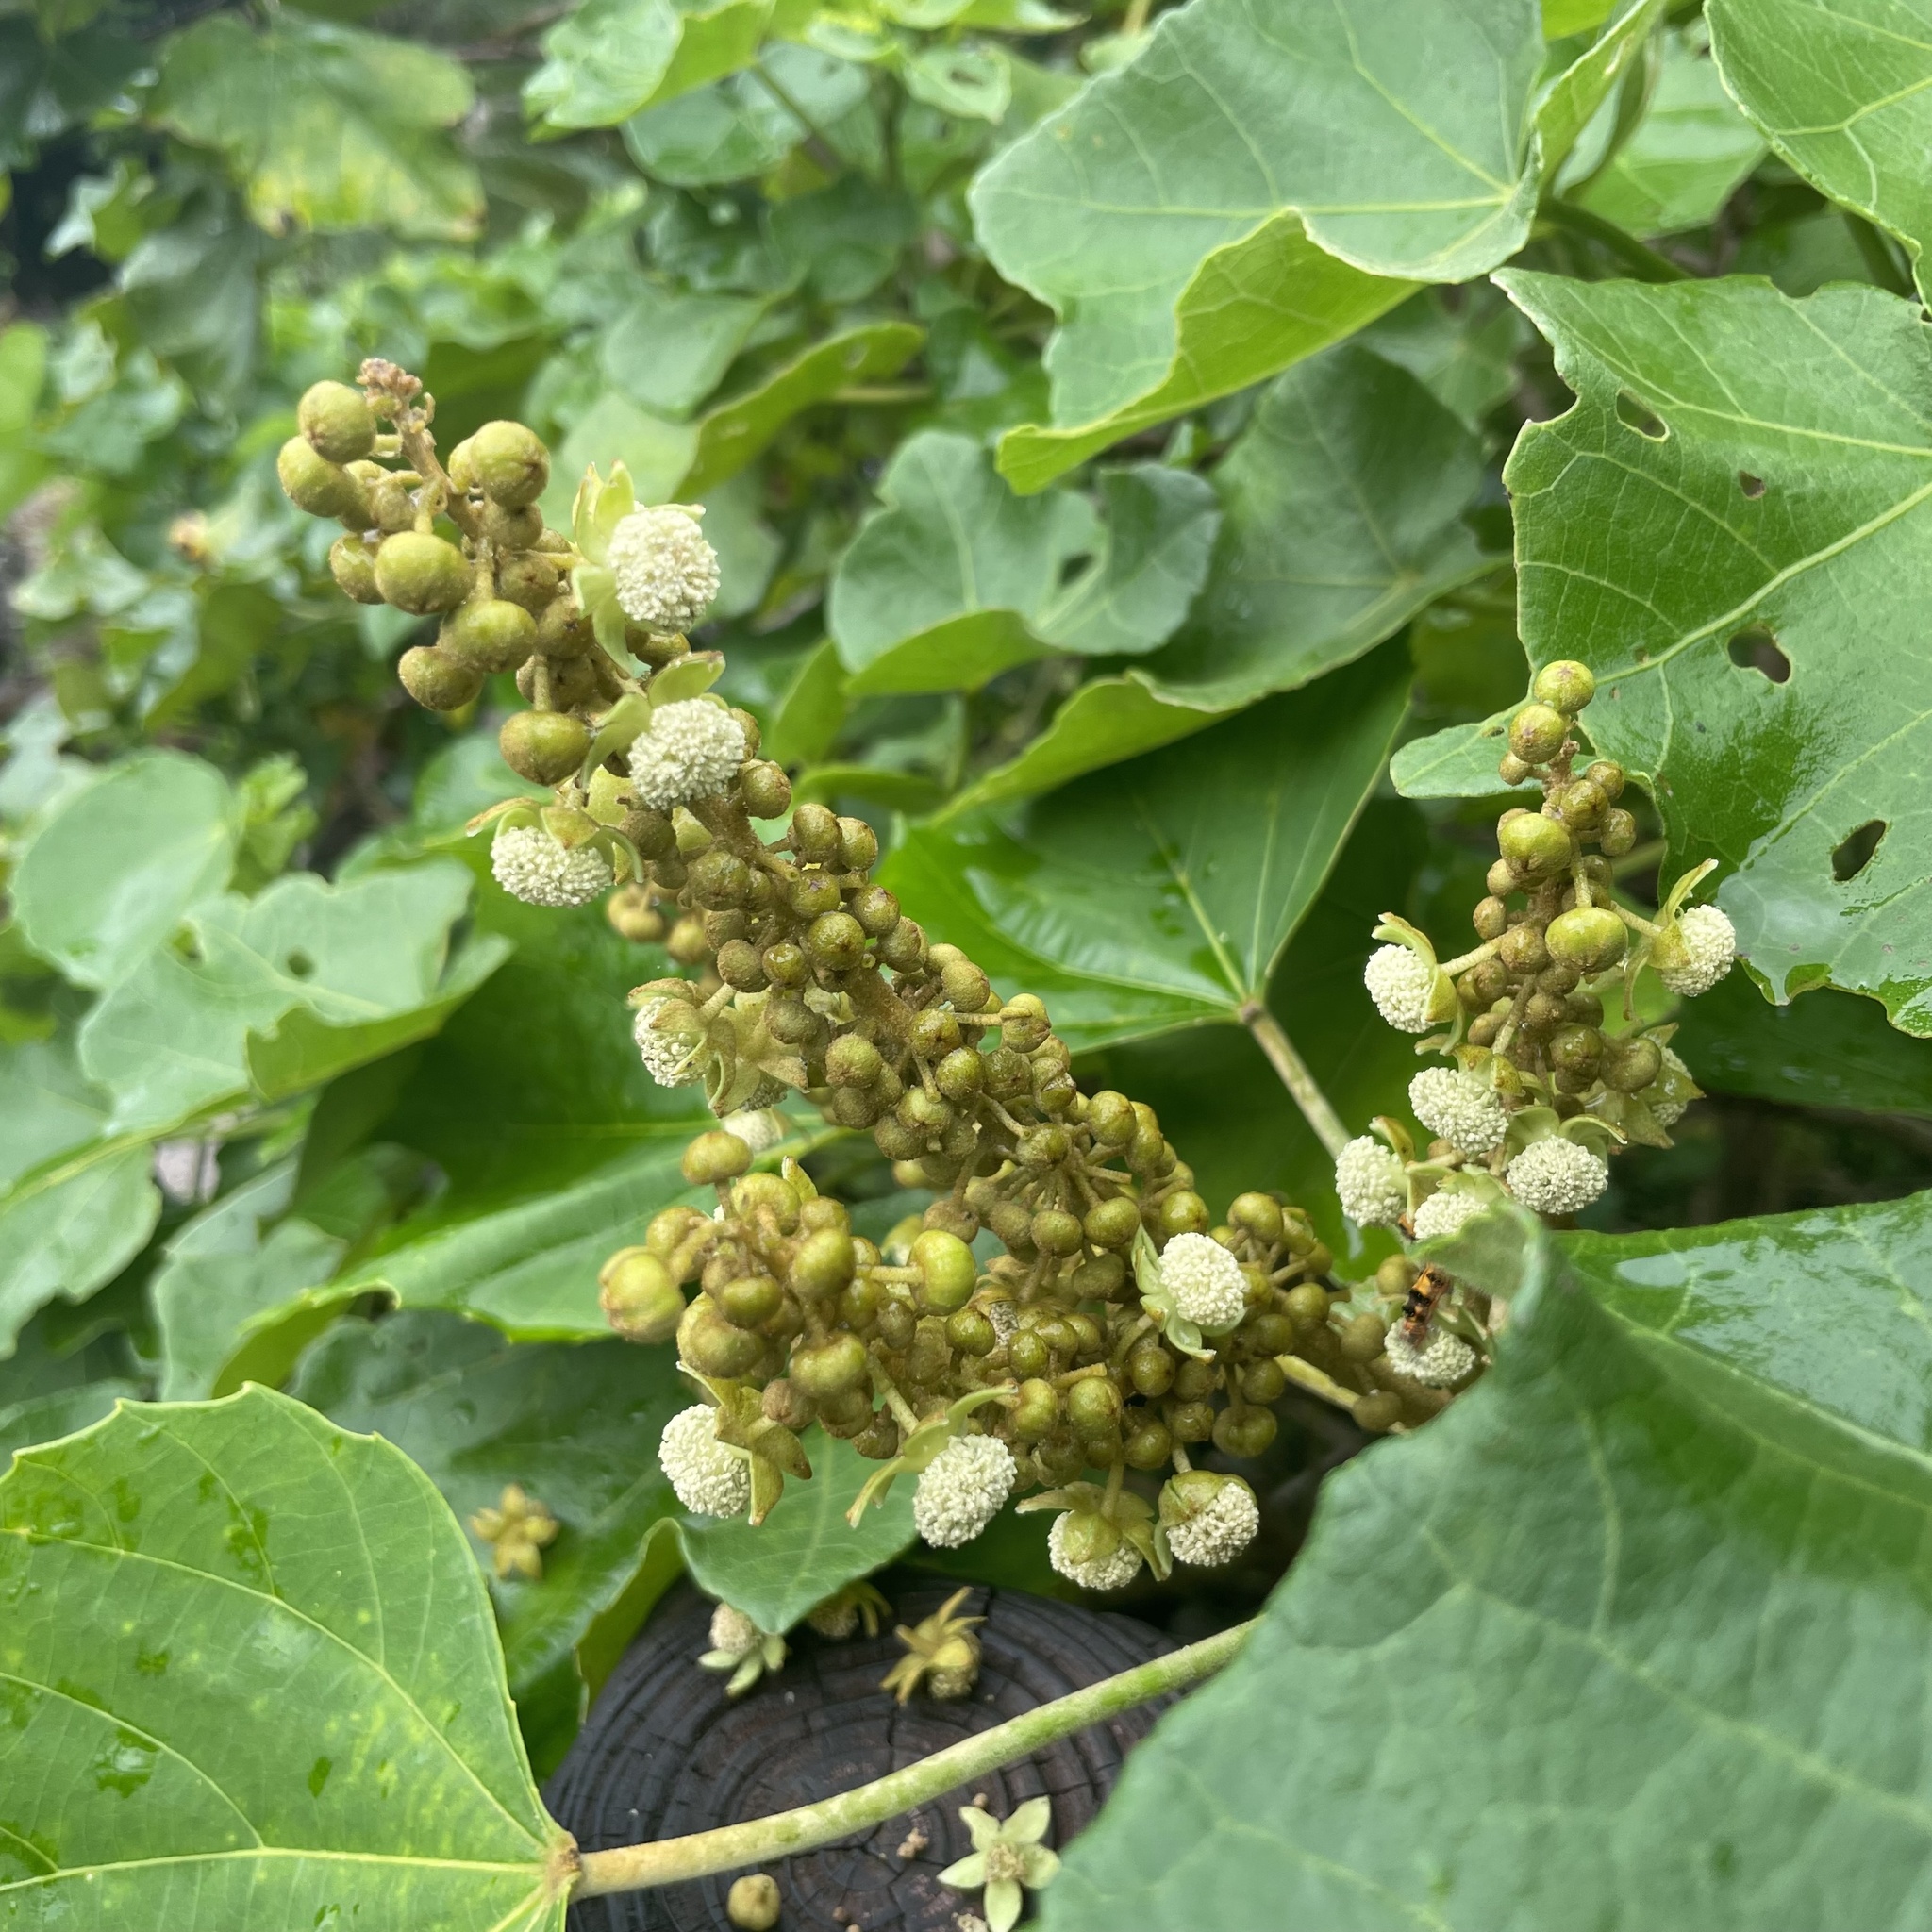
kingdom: Plantae
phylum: Tracheophyta
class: Magnoliopsida
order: Malpighiales
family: Euphorbiaceae
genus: Mallotus
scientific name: Mallotus japonicus
